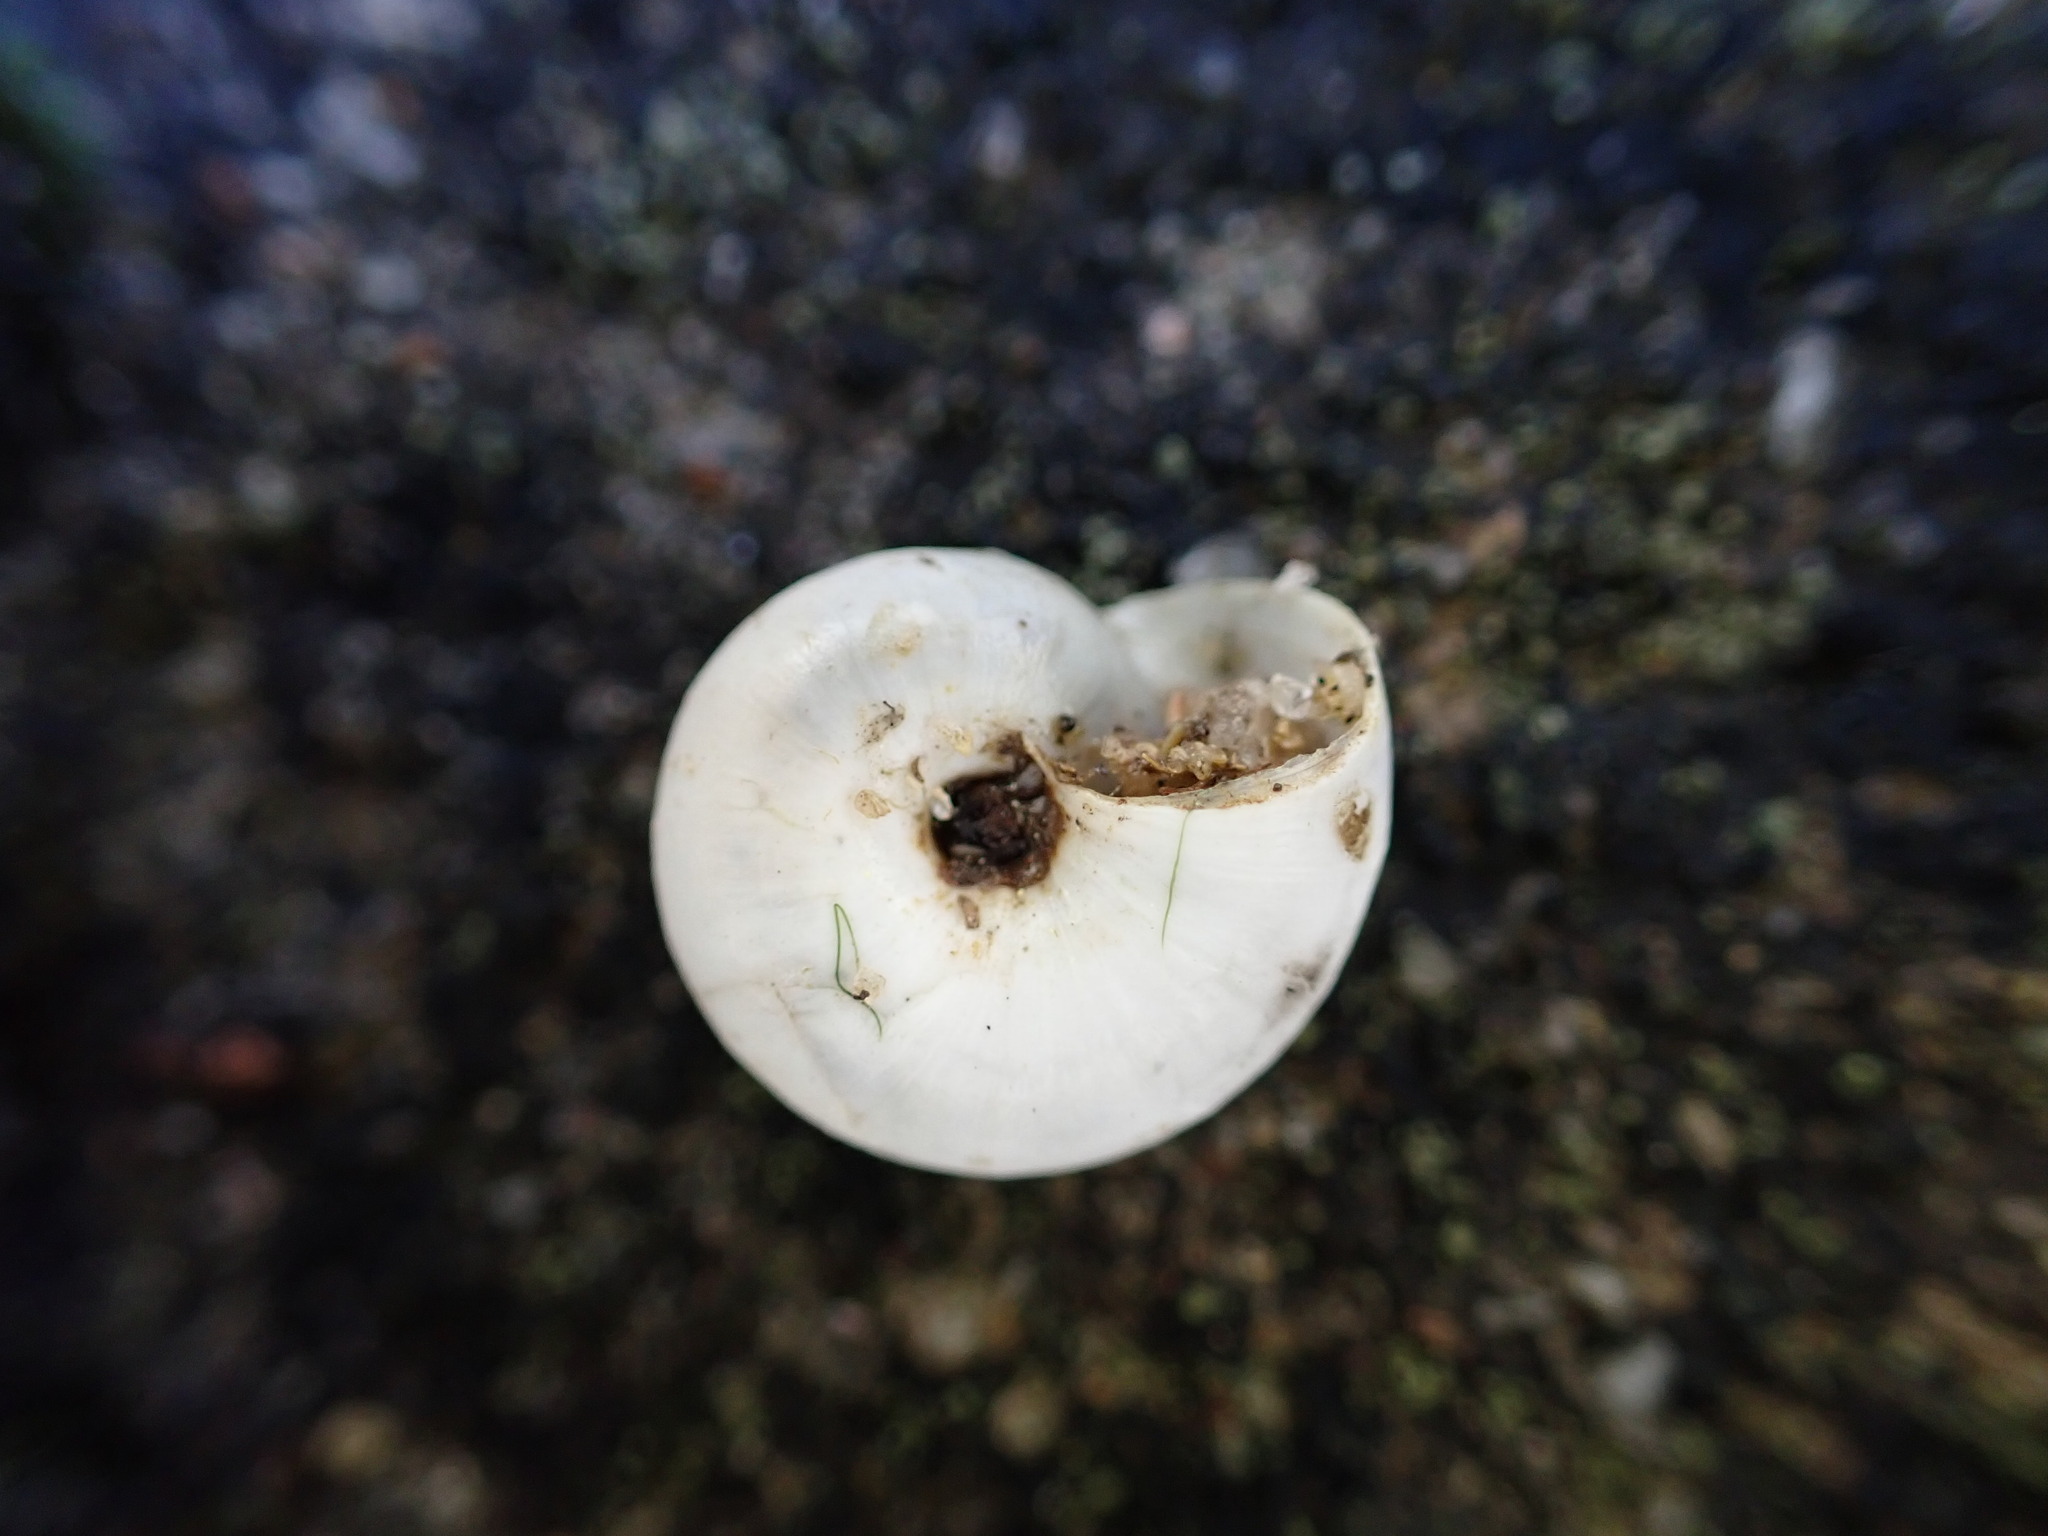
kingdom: Animalia
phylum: Mollusca
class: Gastropoda
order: Stylommatophora
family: Geomitridae
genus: Xeropicta
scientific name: Xeropicta derbentina
